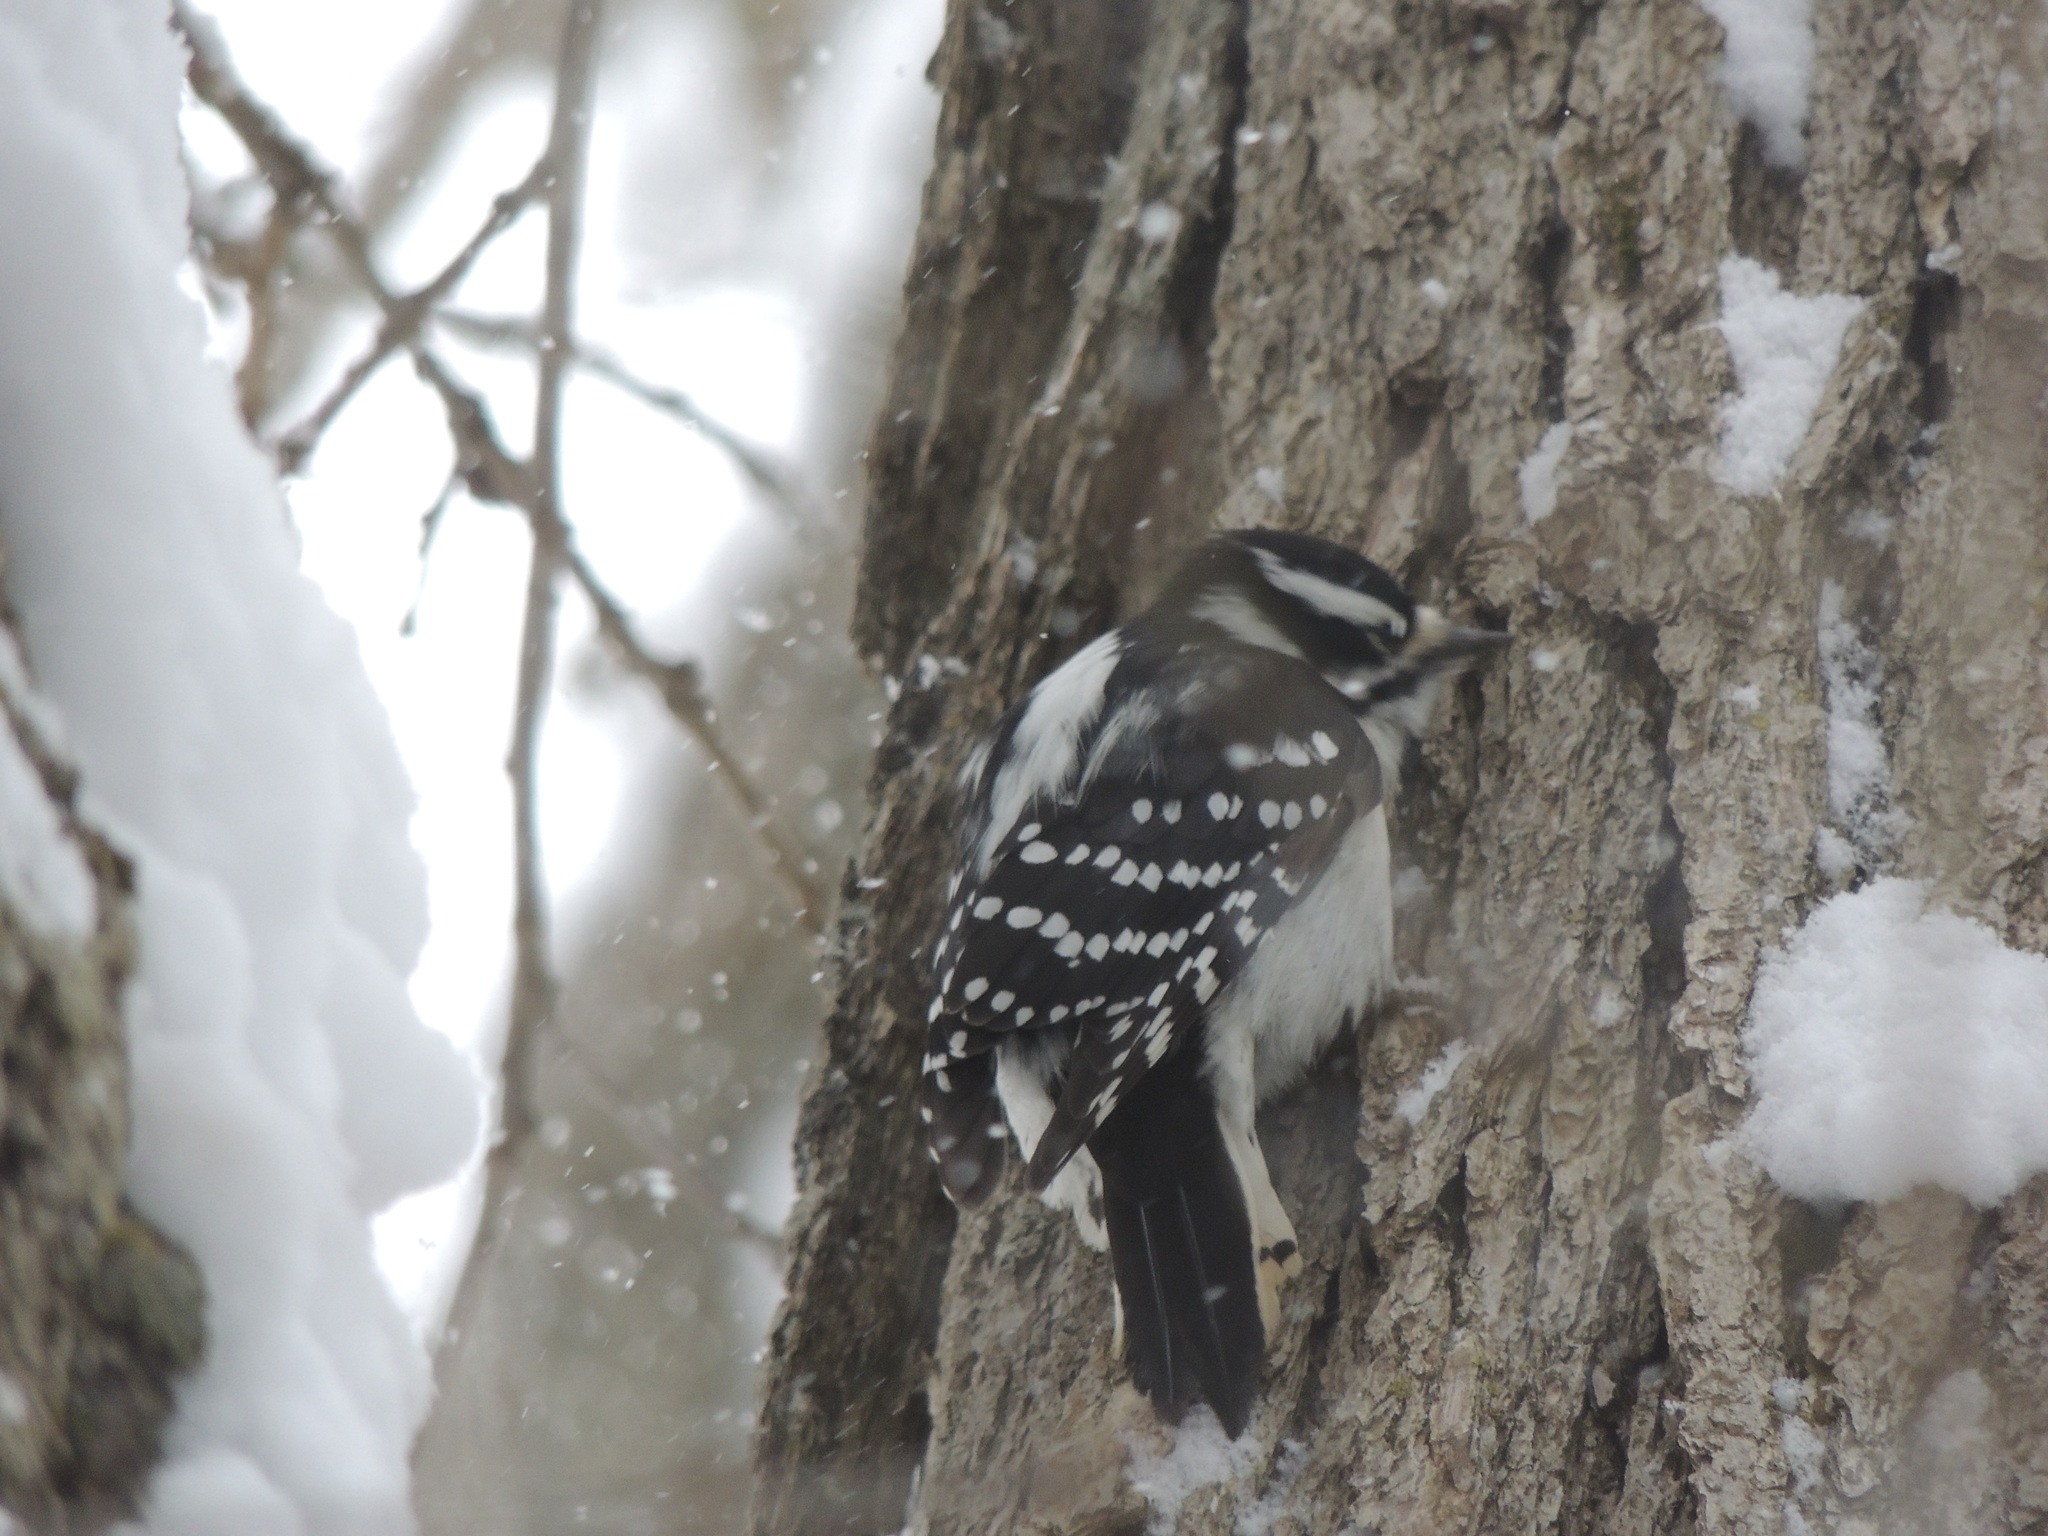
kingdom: Animalia
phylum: Chordata
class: Aves
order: Piciformes
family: Picidae
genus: Dryobates
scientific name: Dryobates pubescens
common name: Downy woodpecker
